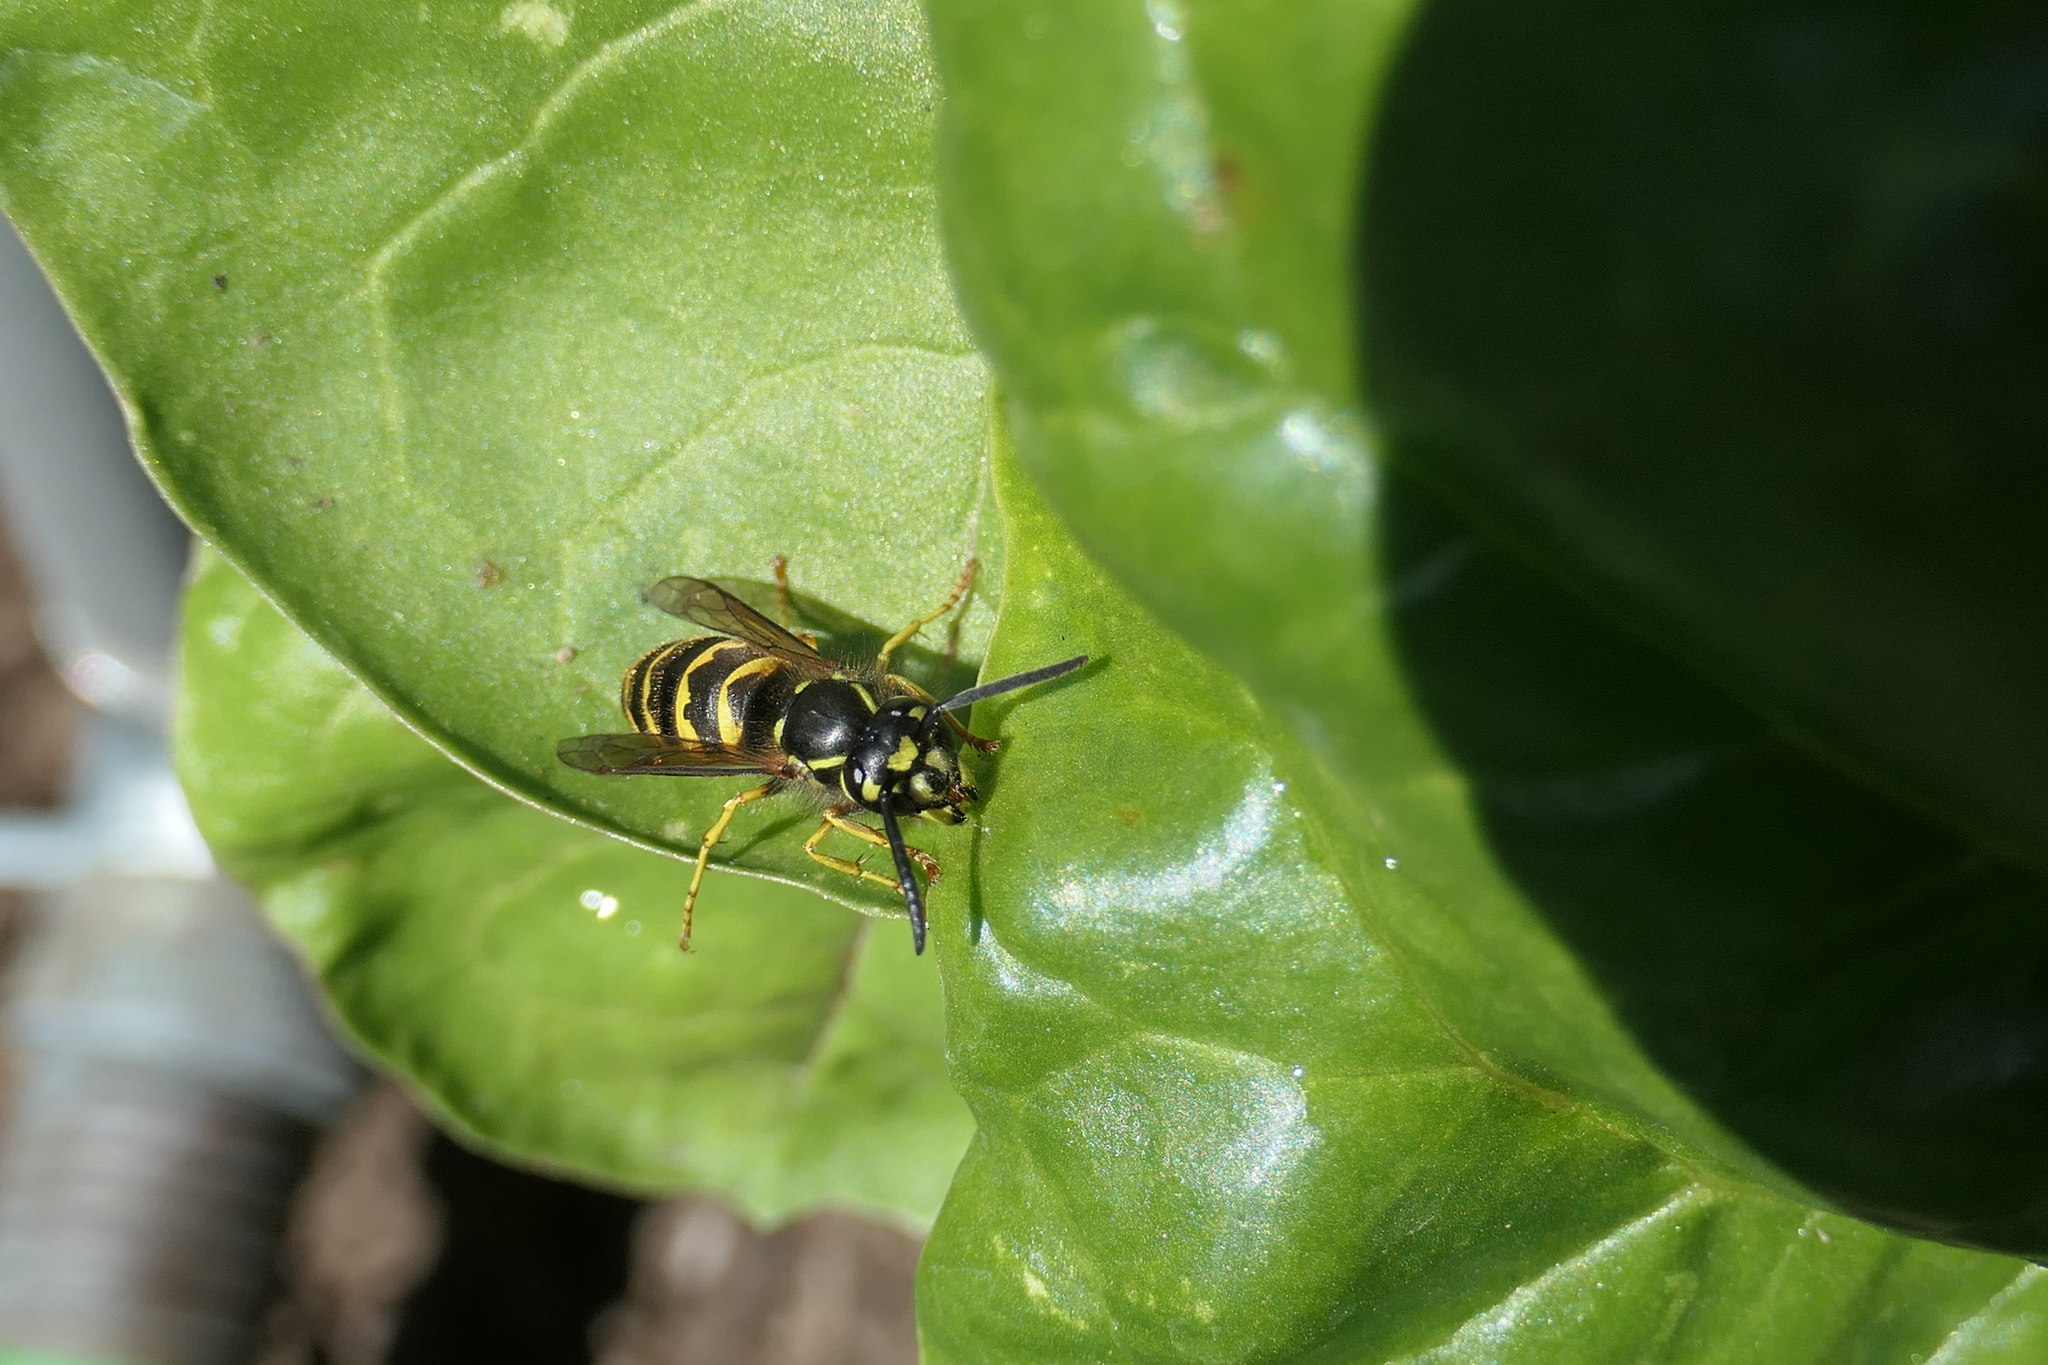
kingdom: Animalia
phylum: Arthropoda
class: Insecta
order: Hymenoptera
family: Vespidae
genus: Vespula
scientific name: Vespula alascensis
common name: Alaska yellowjacket
